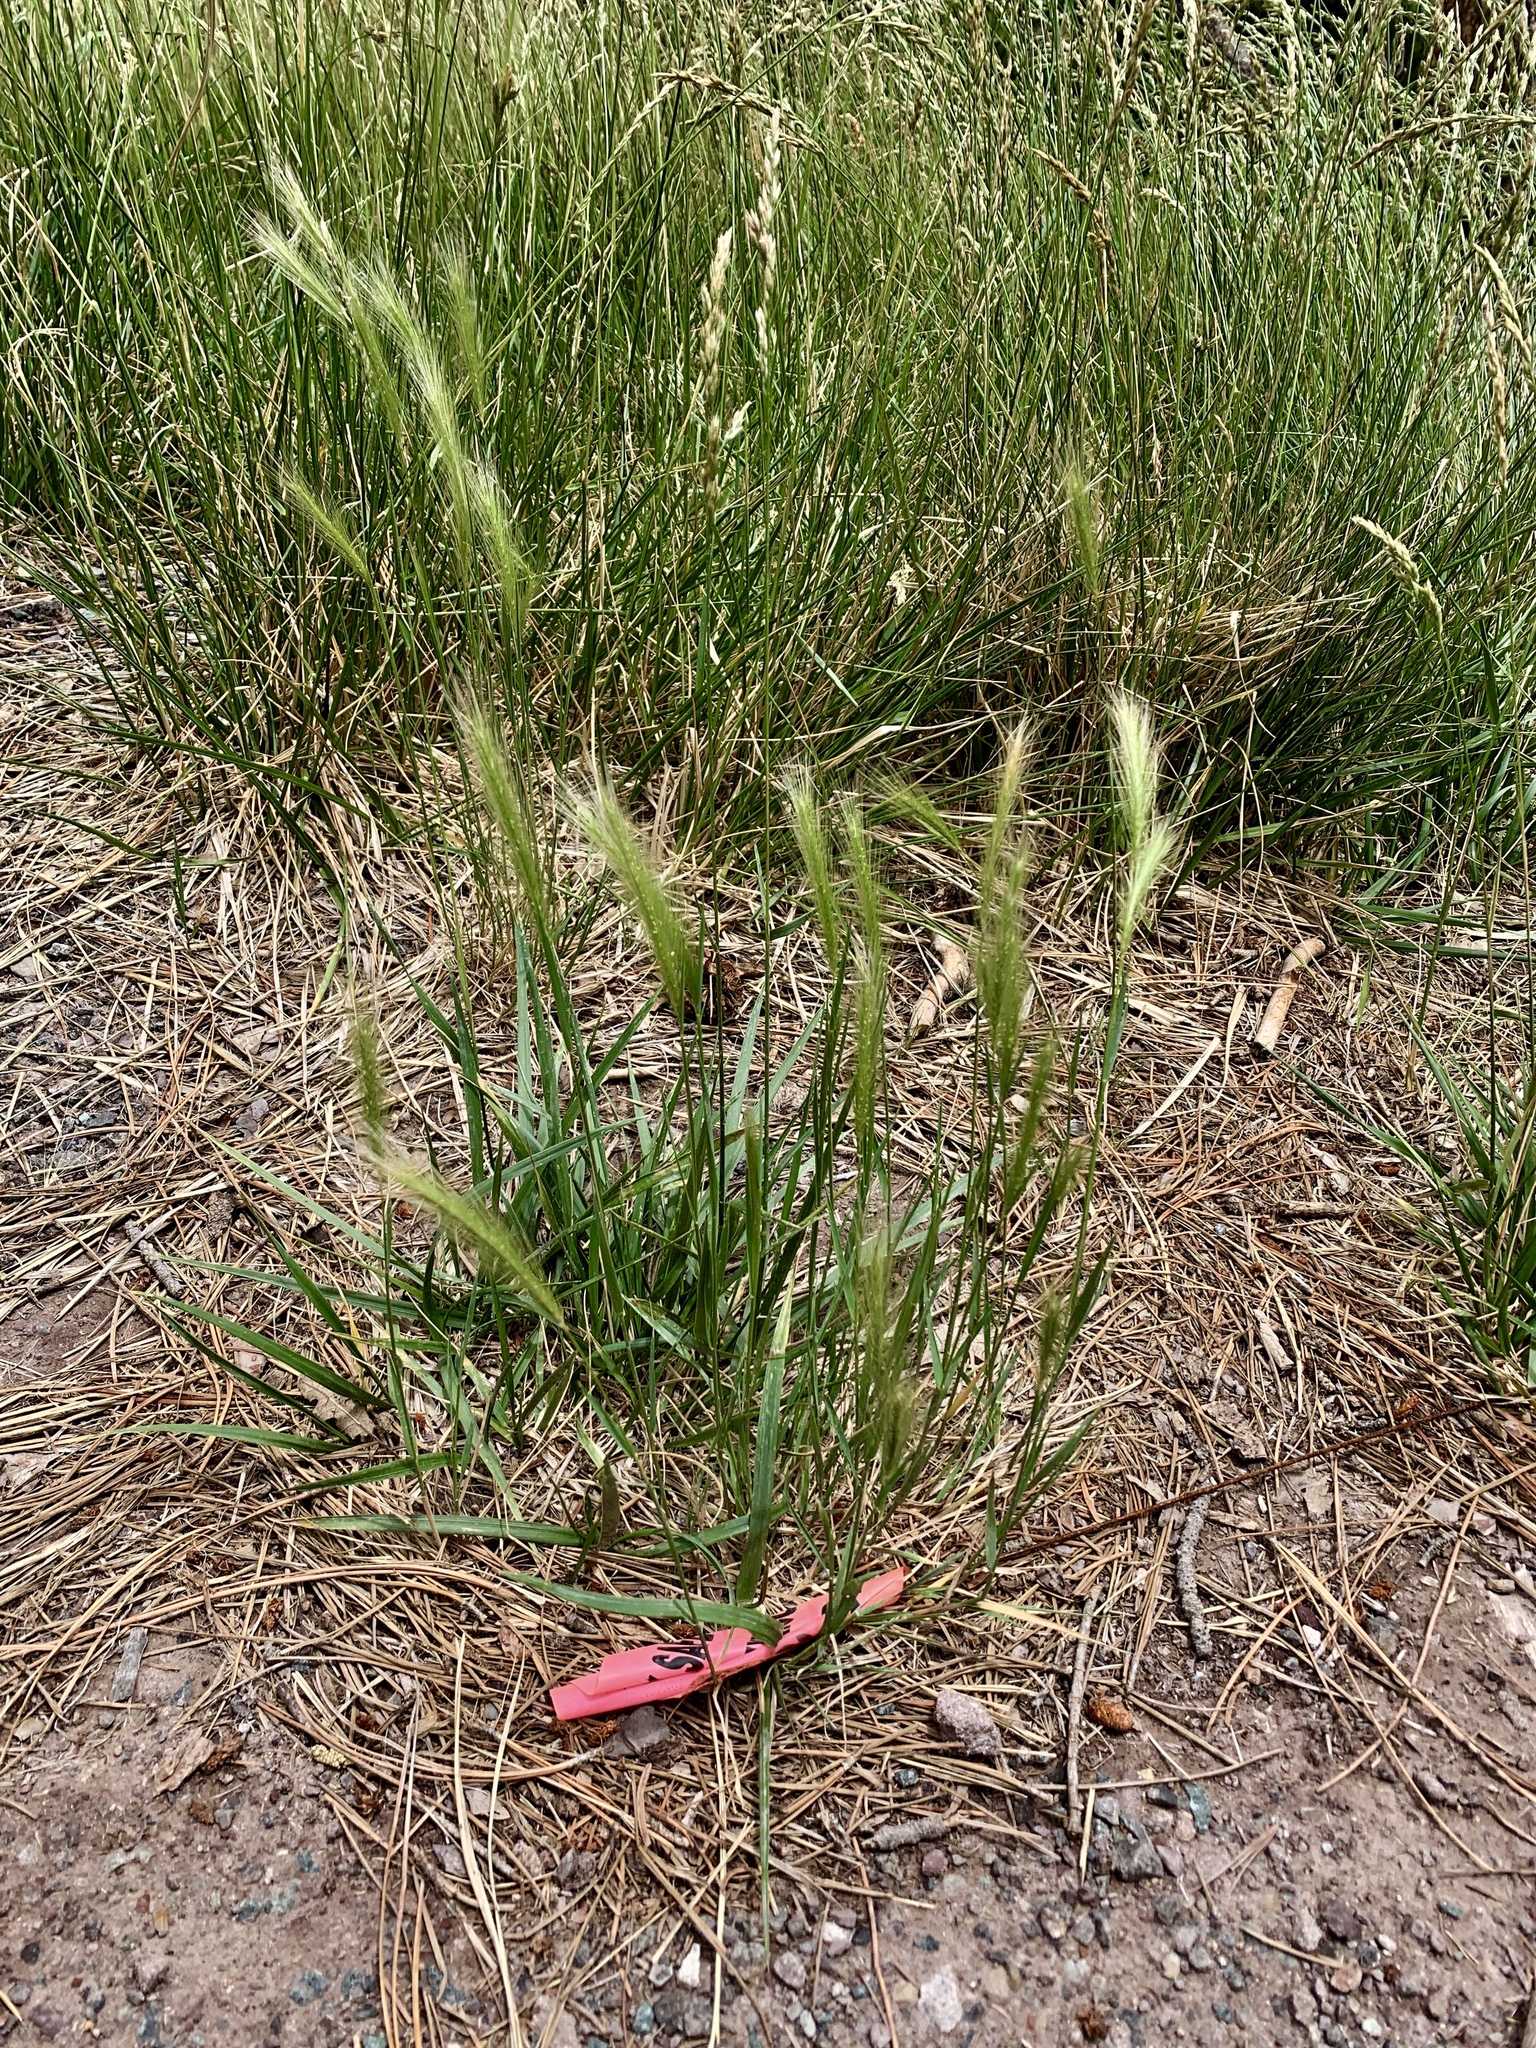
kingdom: Plantae
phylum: Tracheophyta
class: Liliopsida
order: Poales
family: Poaceae
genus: Hordeum
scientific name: Hordeum jubatum
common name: Foxtail barley
